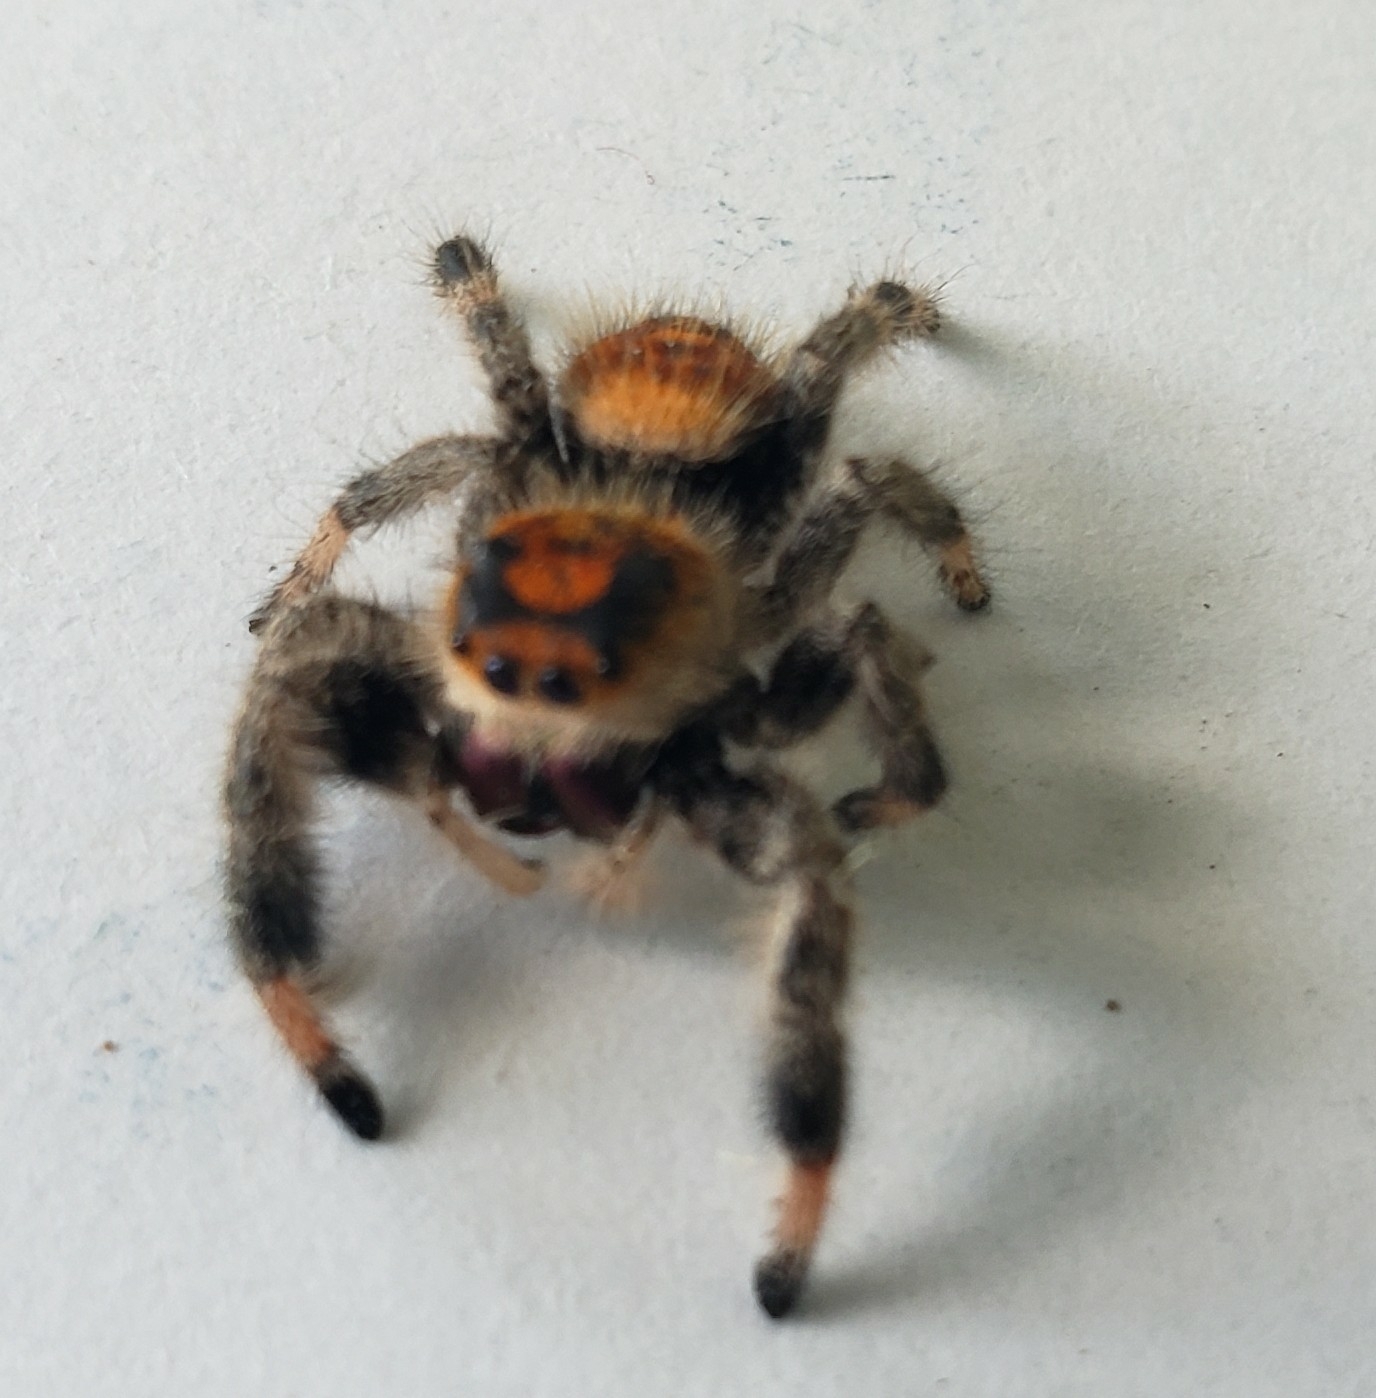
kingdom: Animalia
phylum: Arthropoda
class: Arachnida
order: Araneae
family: Salticidae
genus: Phidippus
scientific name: Phidippus regius
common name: Regal jumper
